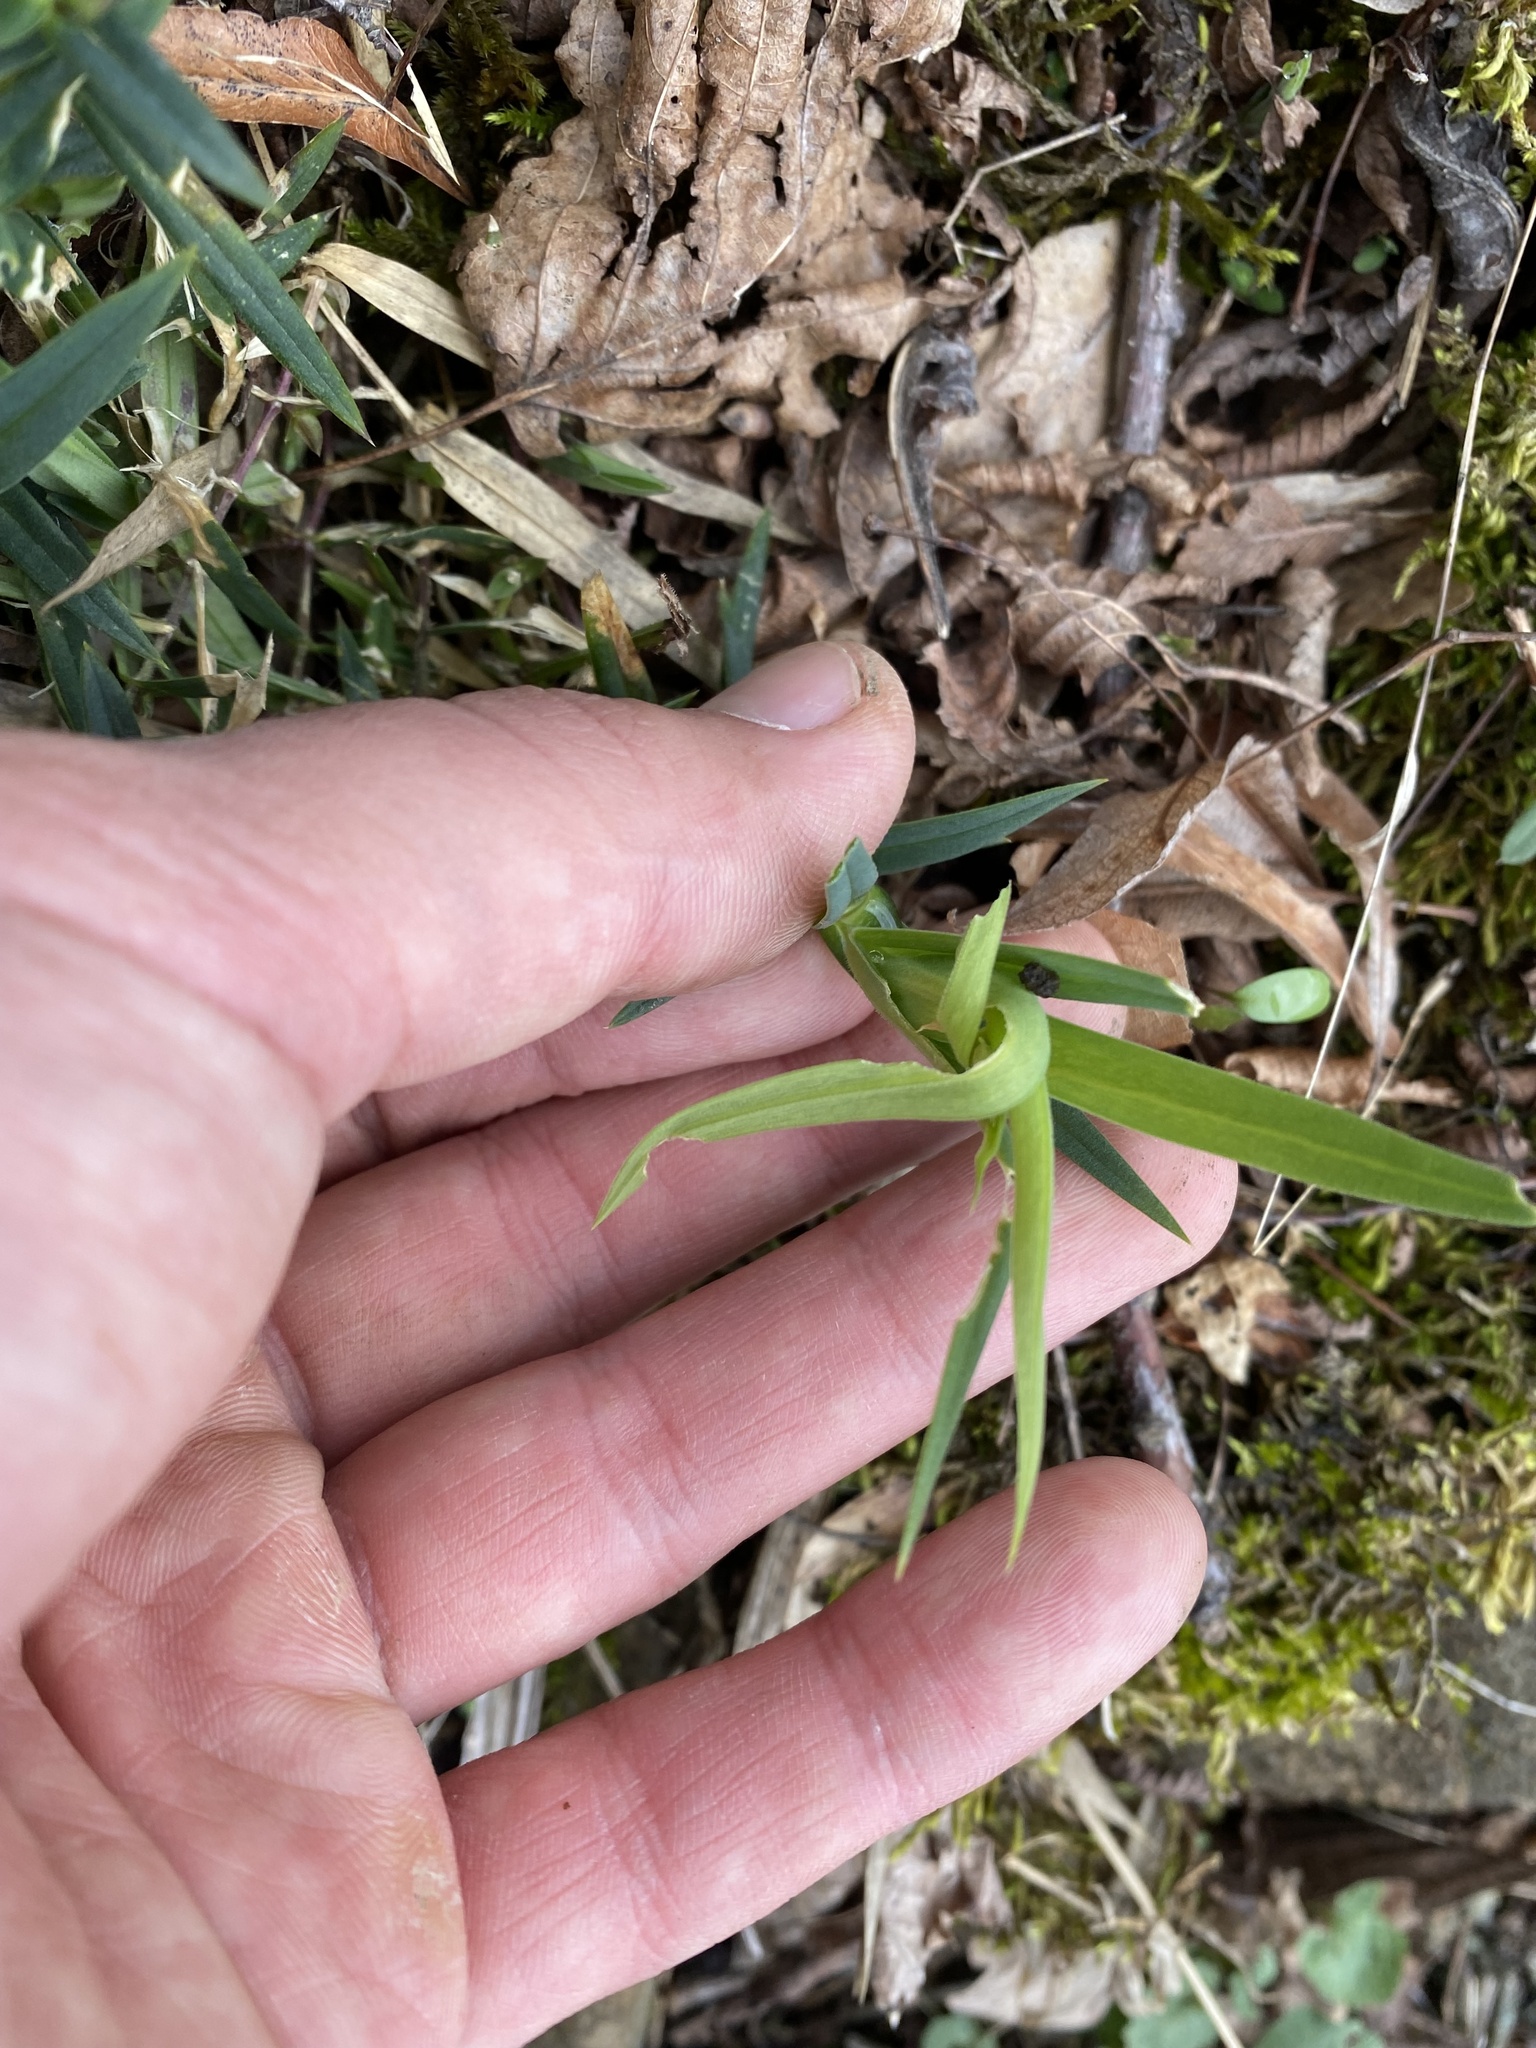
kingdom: Plantae
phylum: Tracheophyta
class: Magnoliopsida
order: Caryophyllales
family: Caryophyllaceae
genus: Rabelera
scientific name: Rabelera holostea
